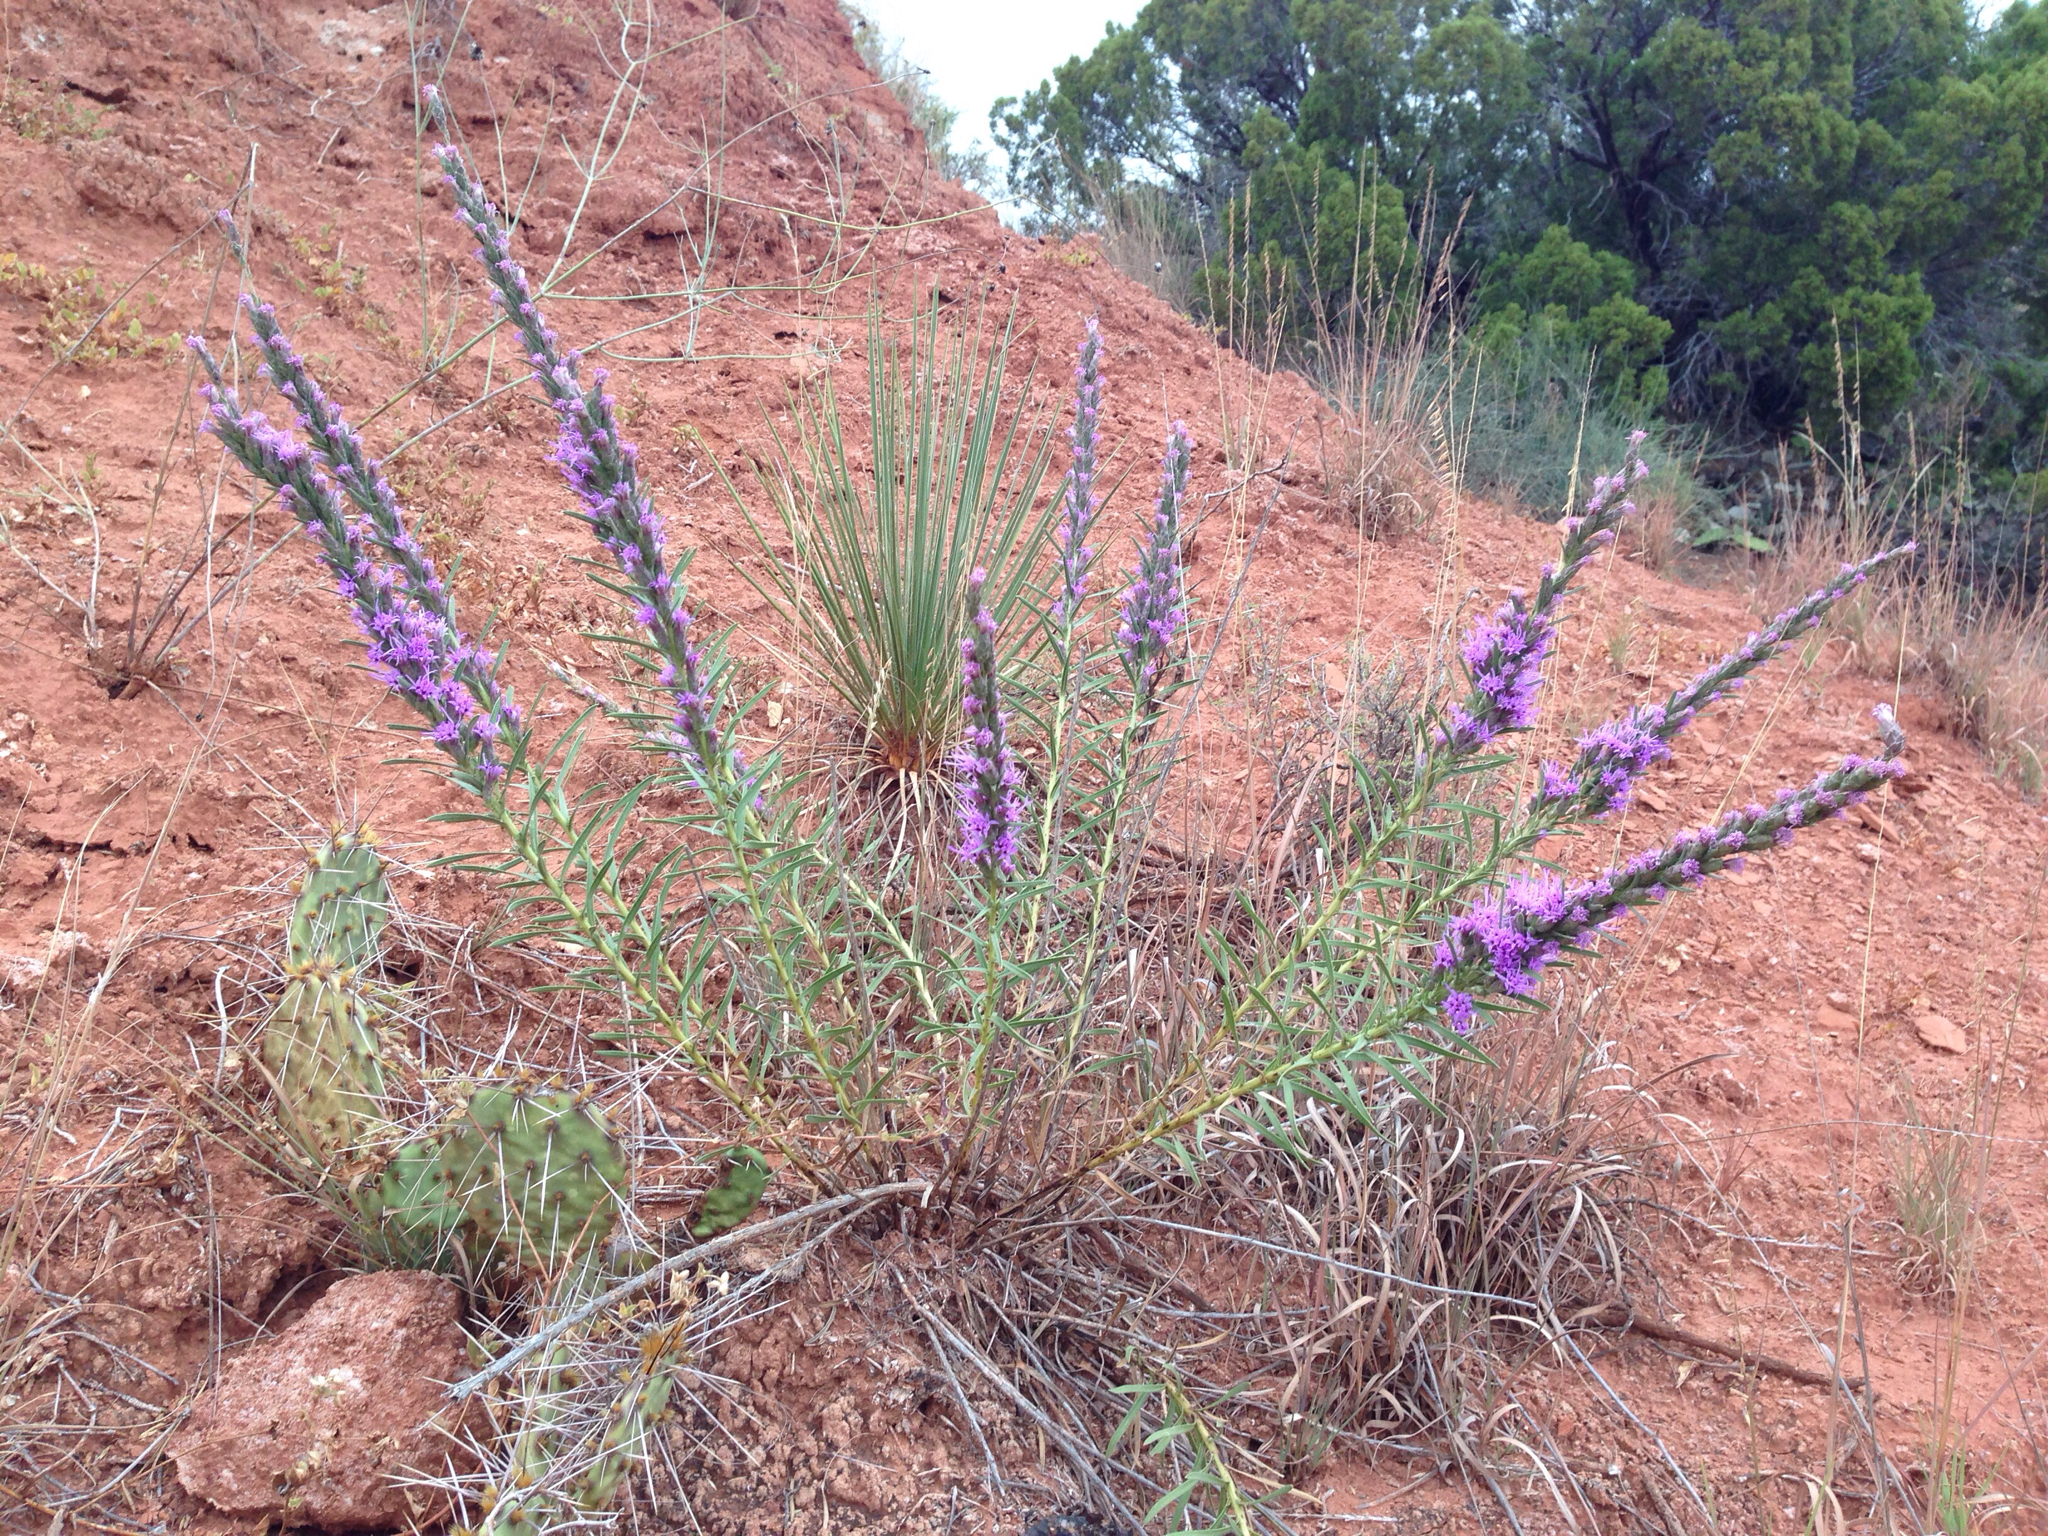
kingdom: Plantae
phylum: Tracheophyta
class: Magnoliopsida
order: Asterales
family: Asteraceae
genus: Liatris
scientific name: Liatris punctata
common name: Dotted gayfeather
